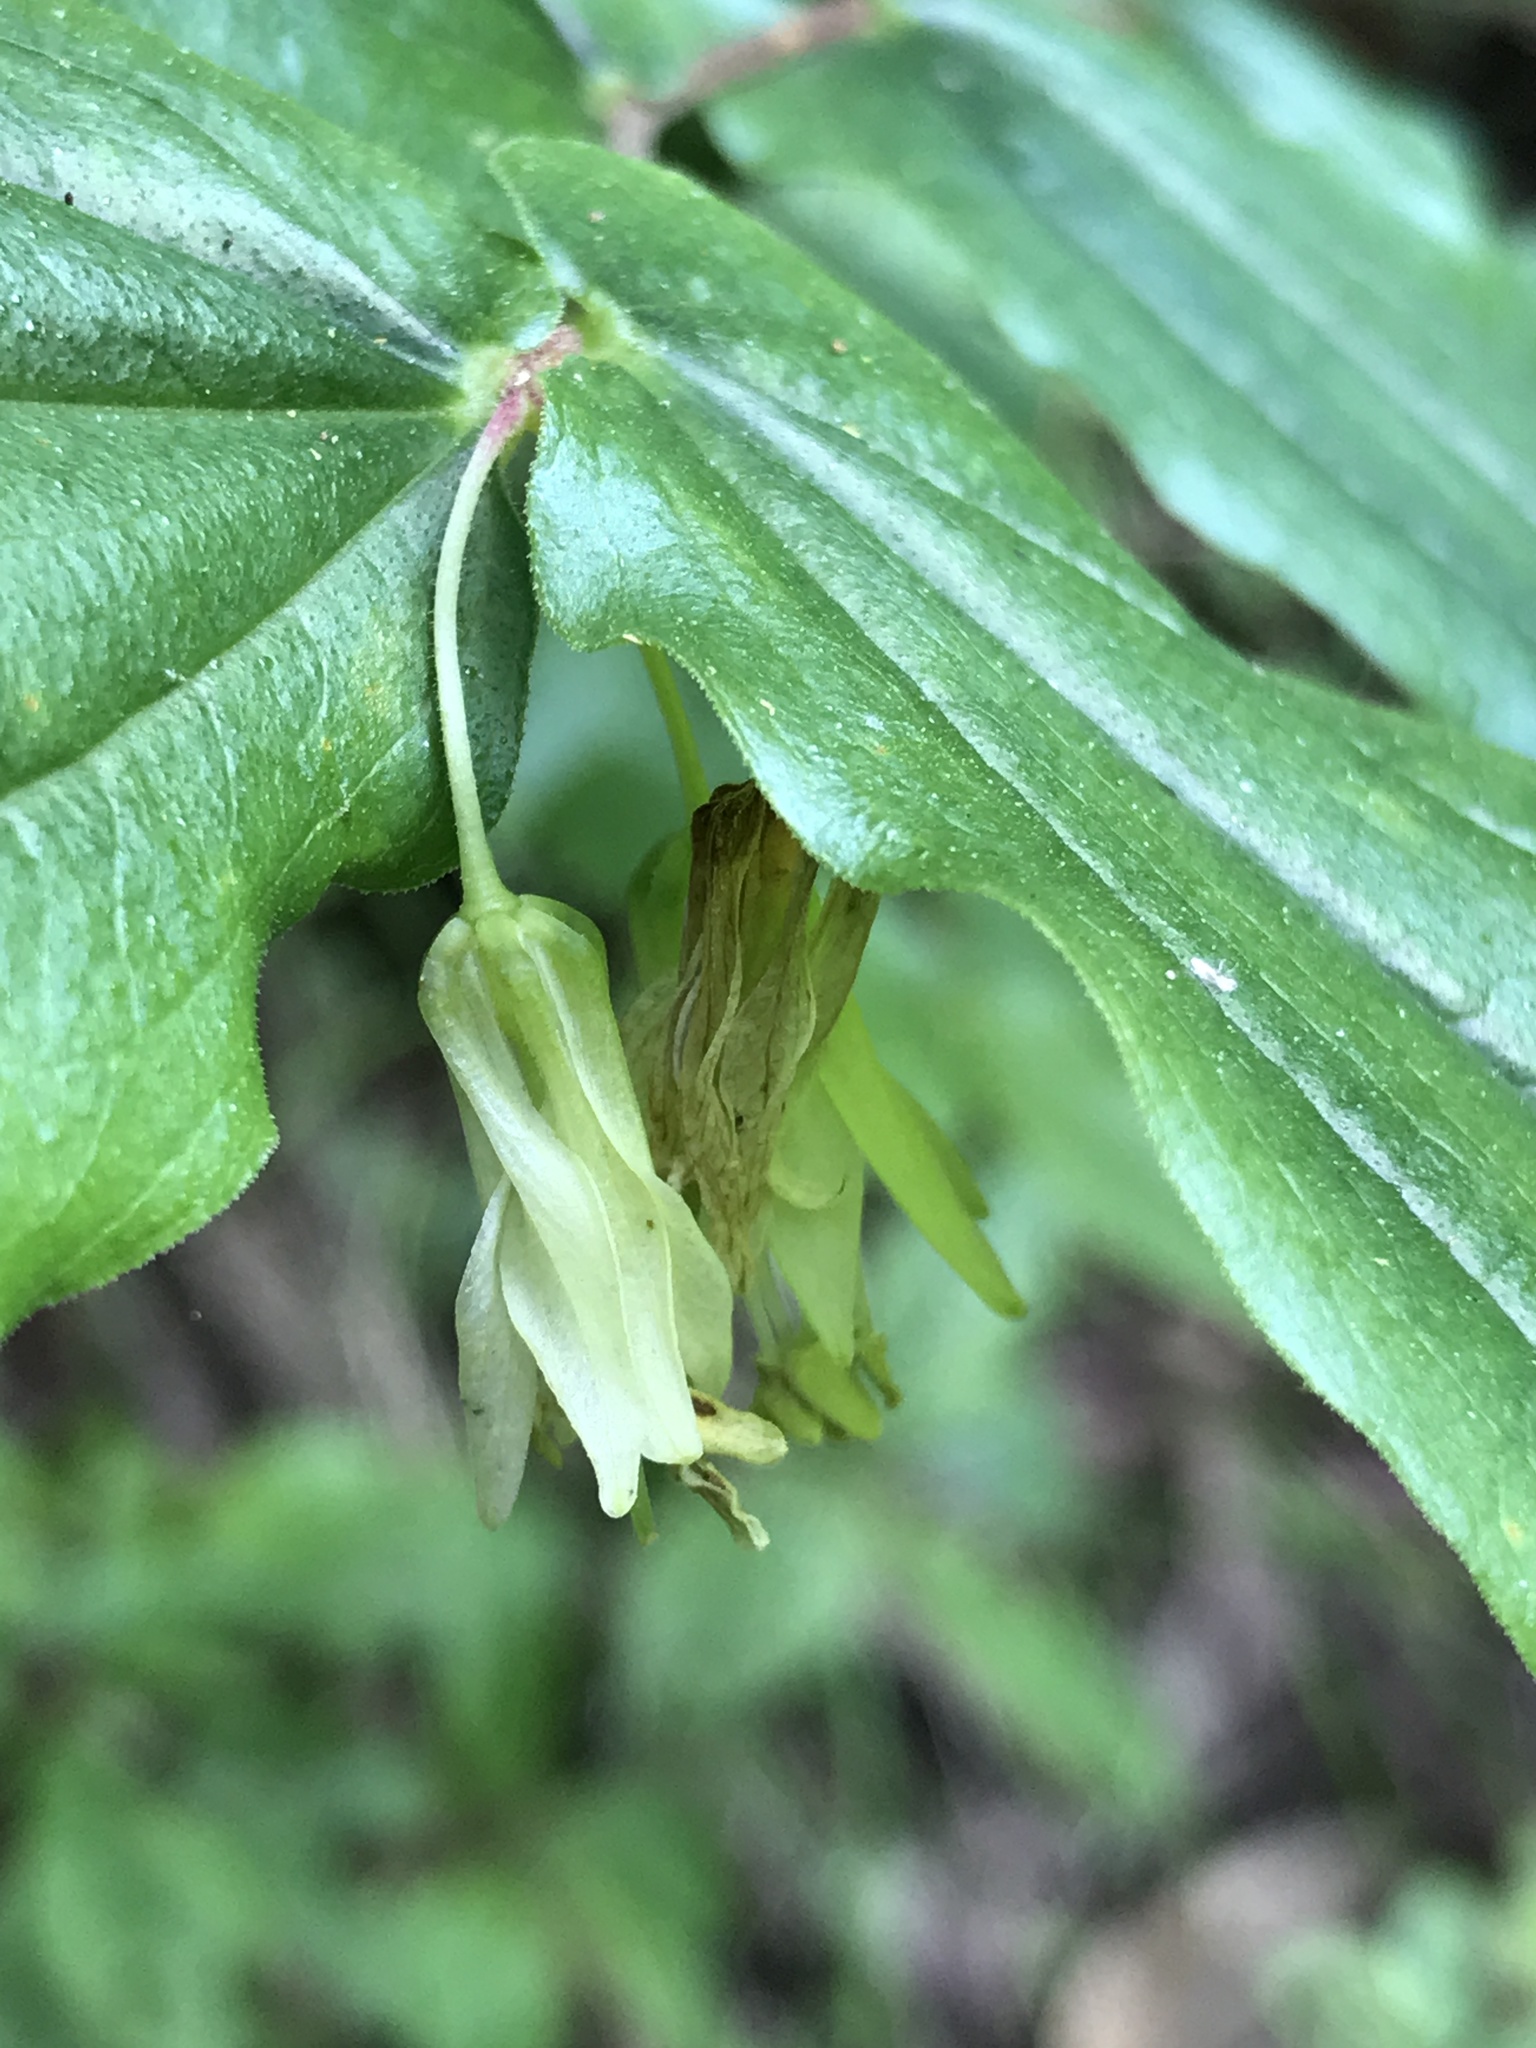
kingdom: Plantae
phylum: Tracheophyta
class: Liliopsida
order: Liliales
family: Liliaceae
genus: Prosartes
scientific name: Prosartes hookeri
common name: Fairy-bells
